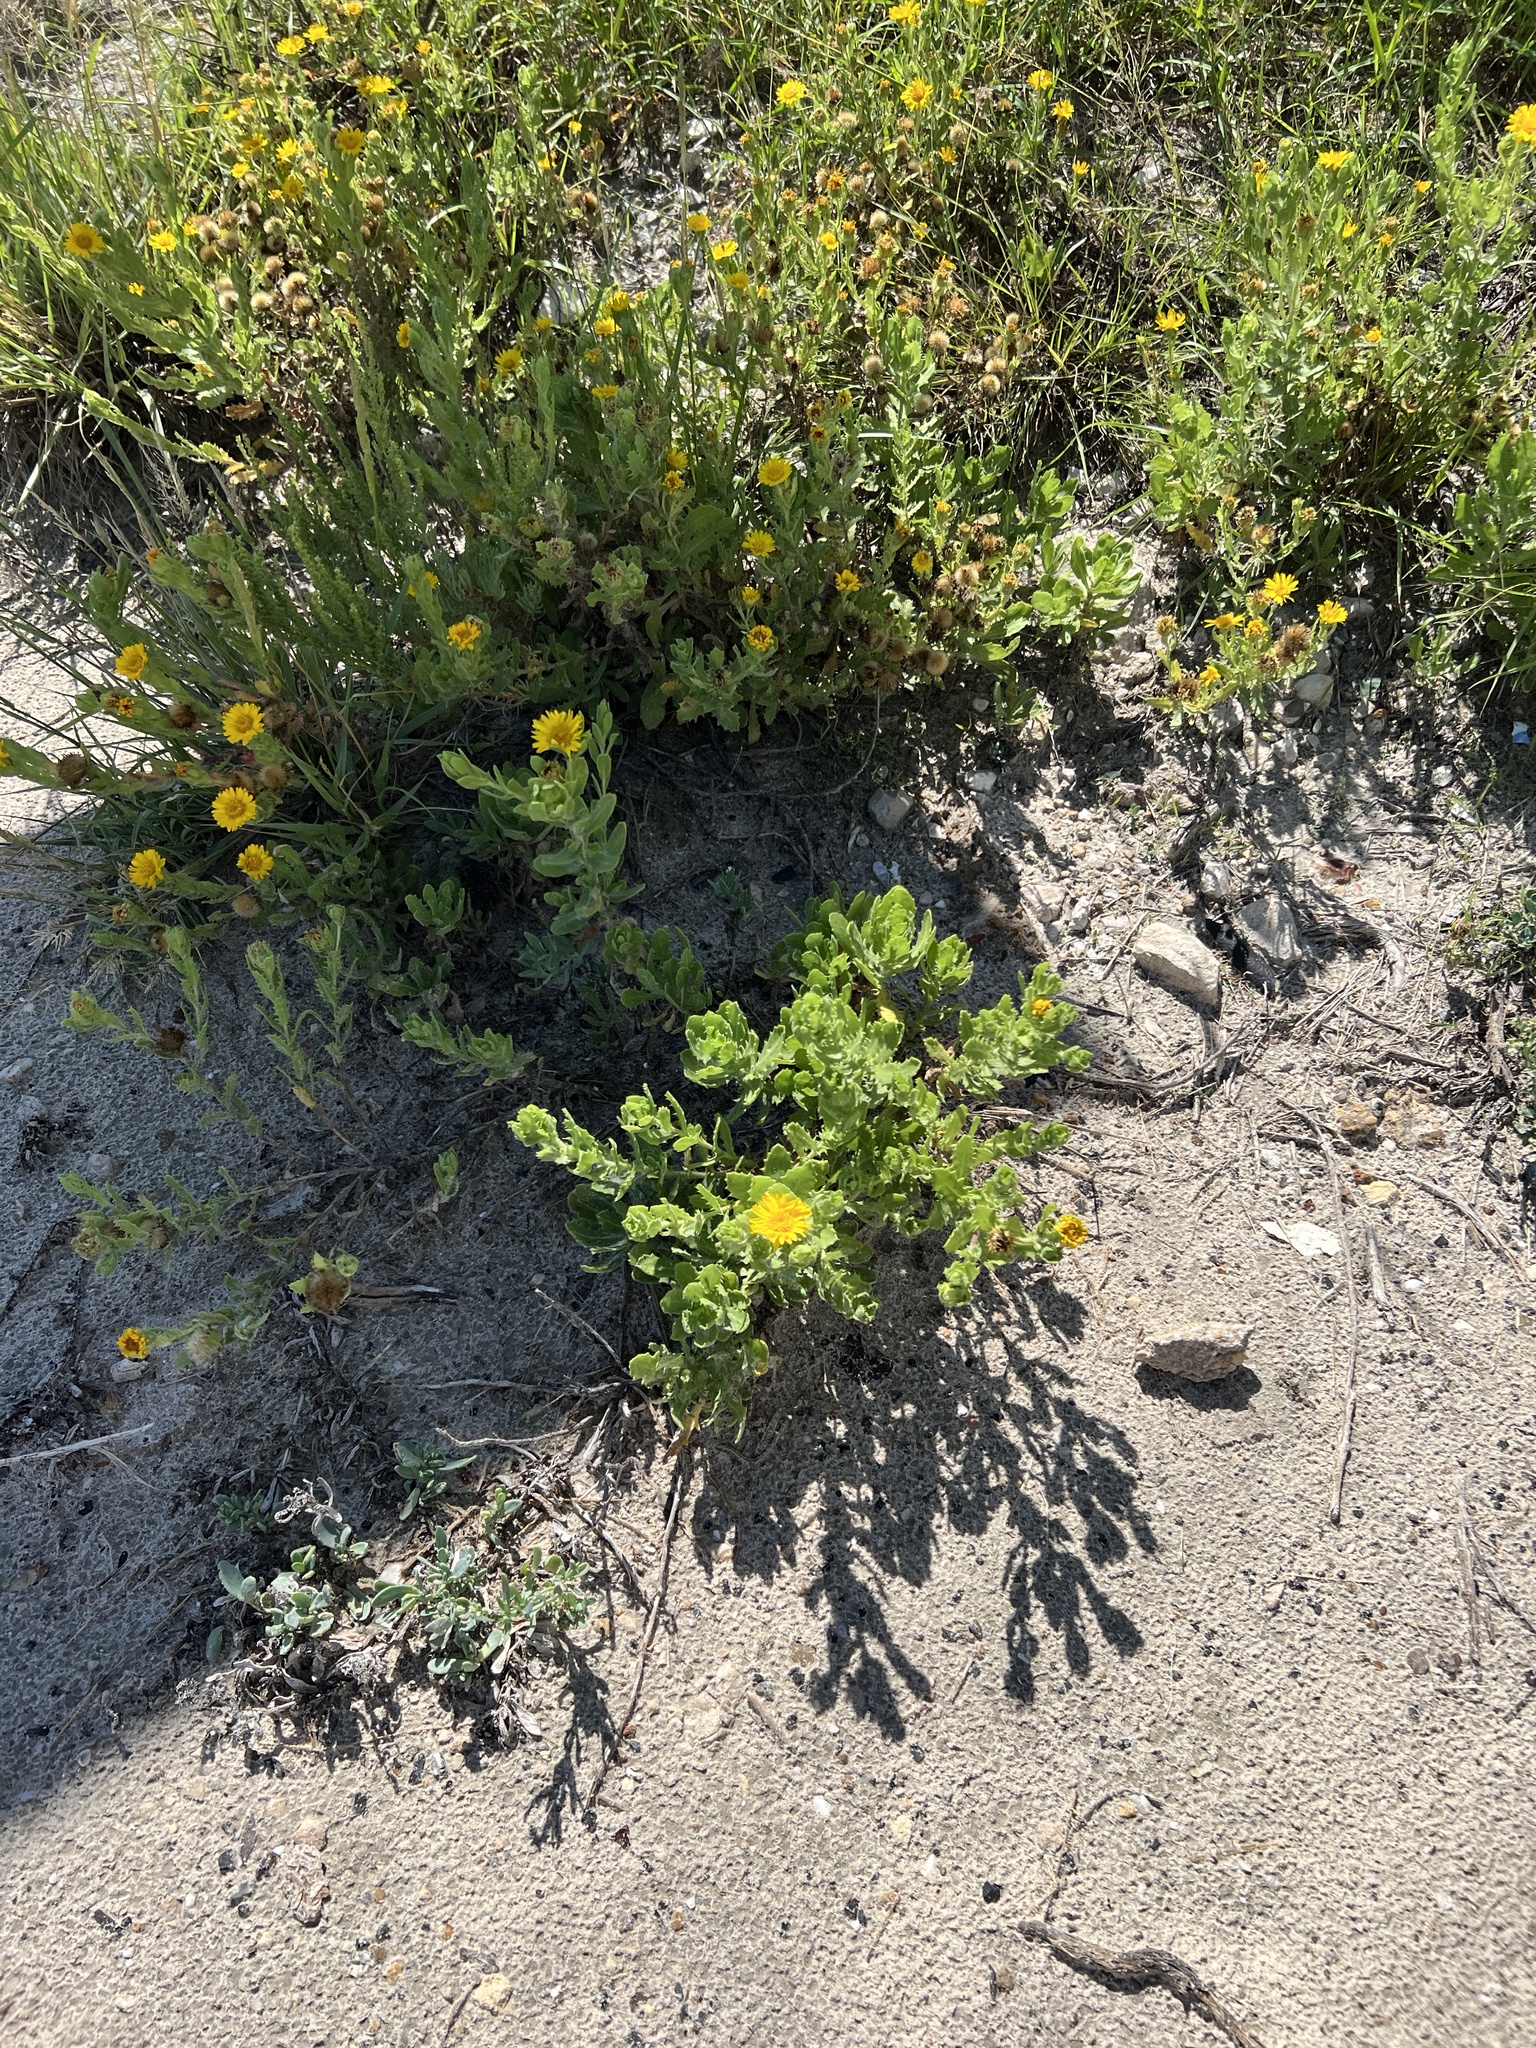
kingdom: Plantae
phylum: Tracheophyta
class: Magnoliopsida
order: Asterales
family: Asteraceae
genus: Rayjacksonia
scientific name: Rayjacksonia phyllocephala
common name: Gulf coast camphor daisy
